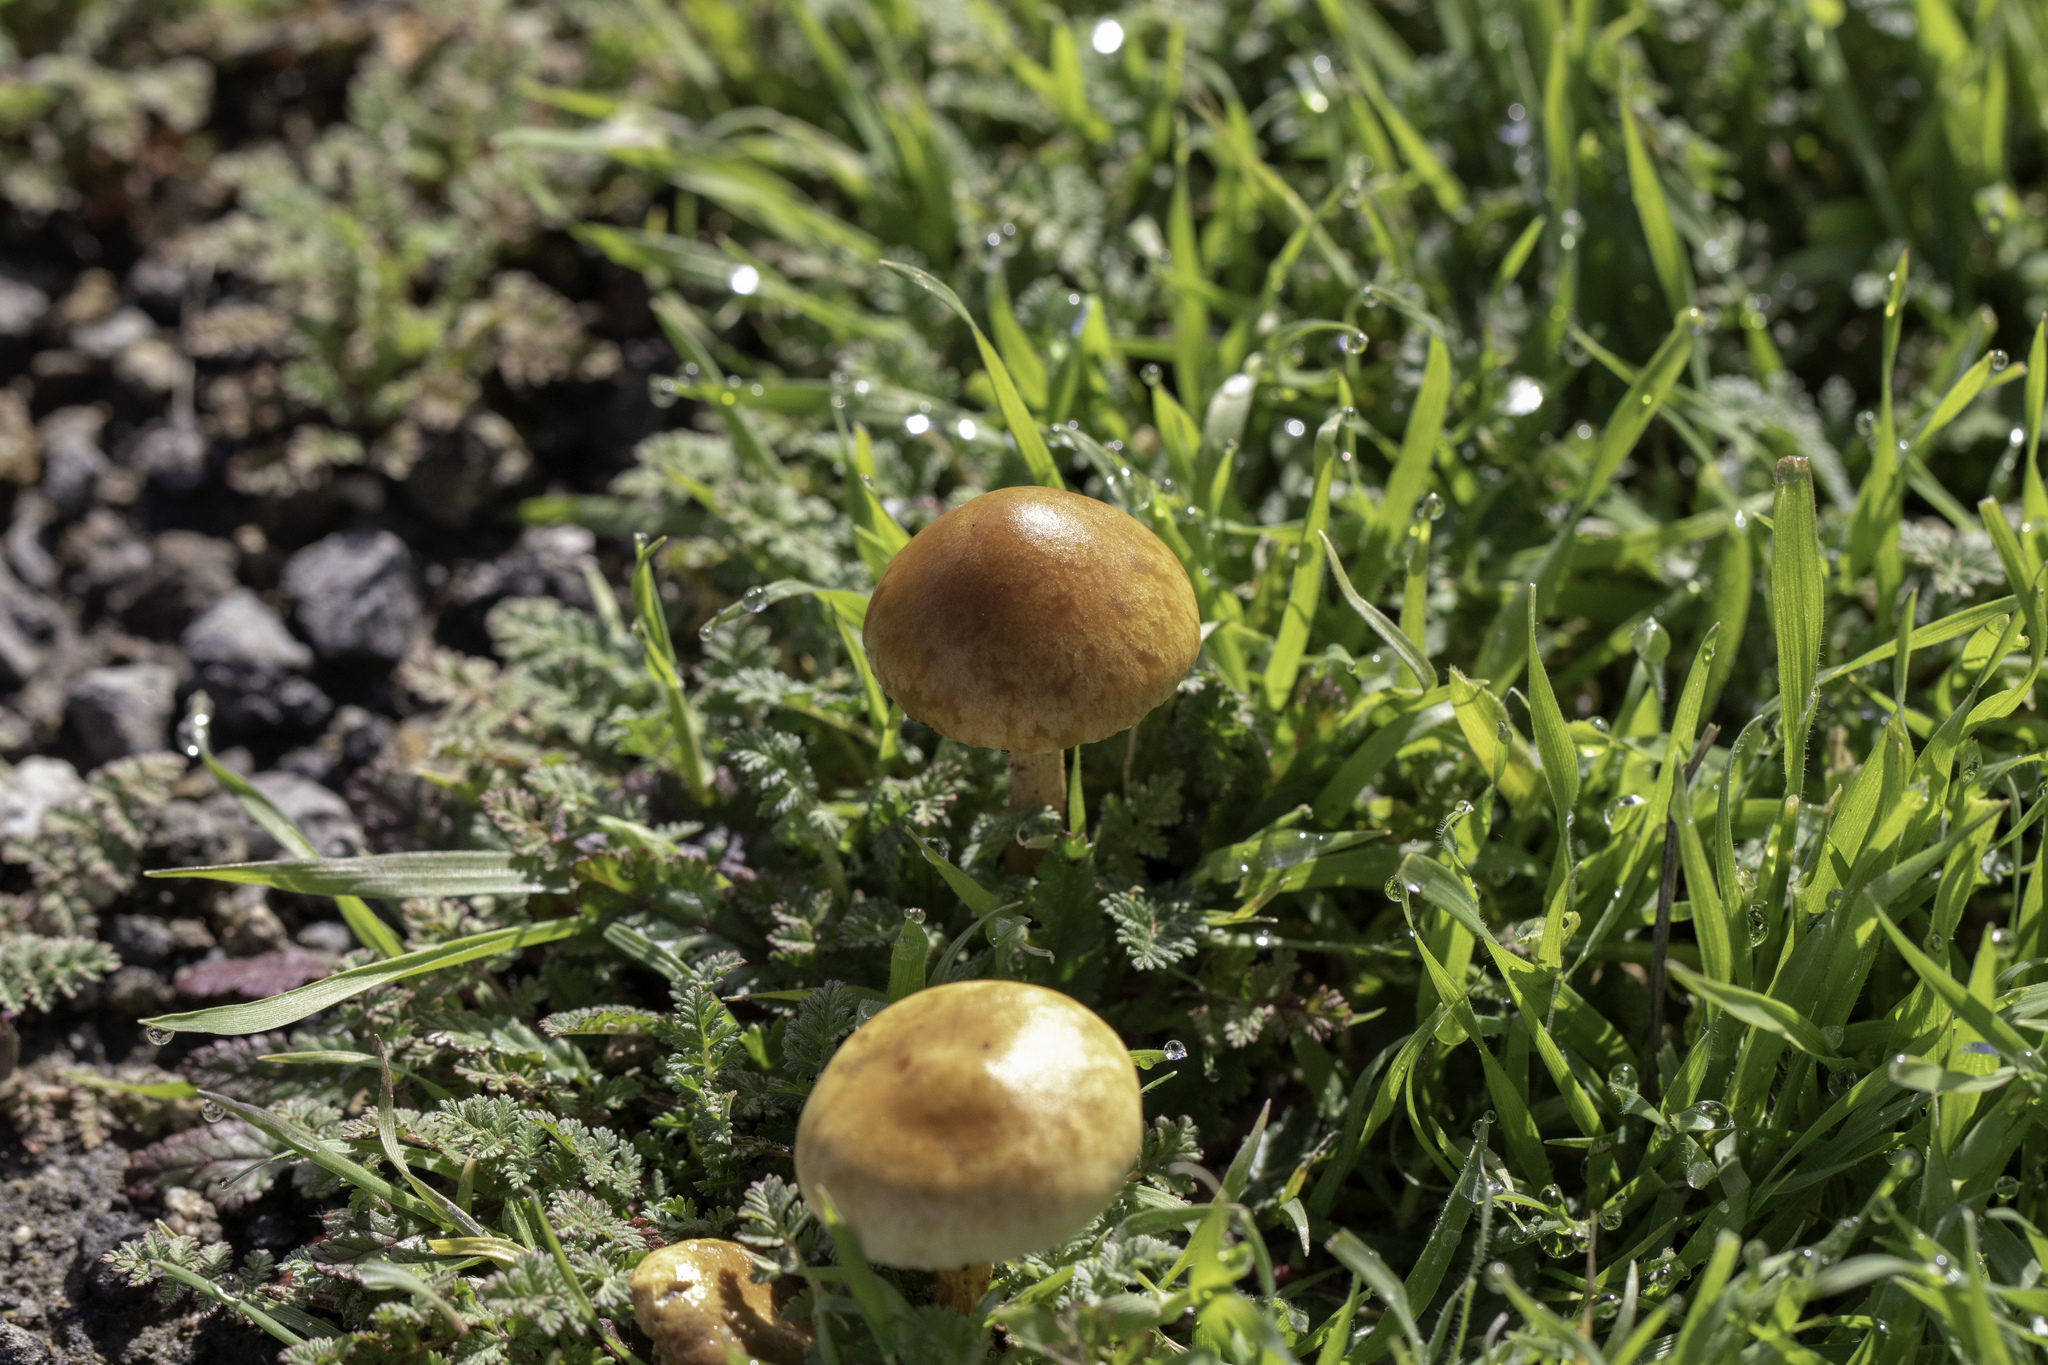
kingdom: Fungi
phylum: Basidiomycota
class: Agaricomycetes
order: Agaricales
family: Strophariaceae
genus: Agrocybe
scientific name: Agrocybe pediades
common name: Common fieldcap
